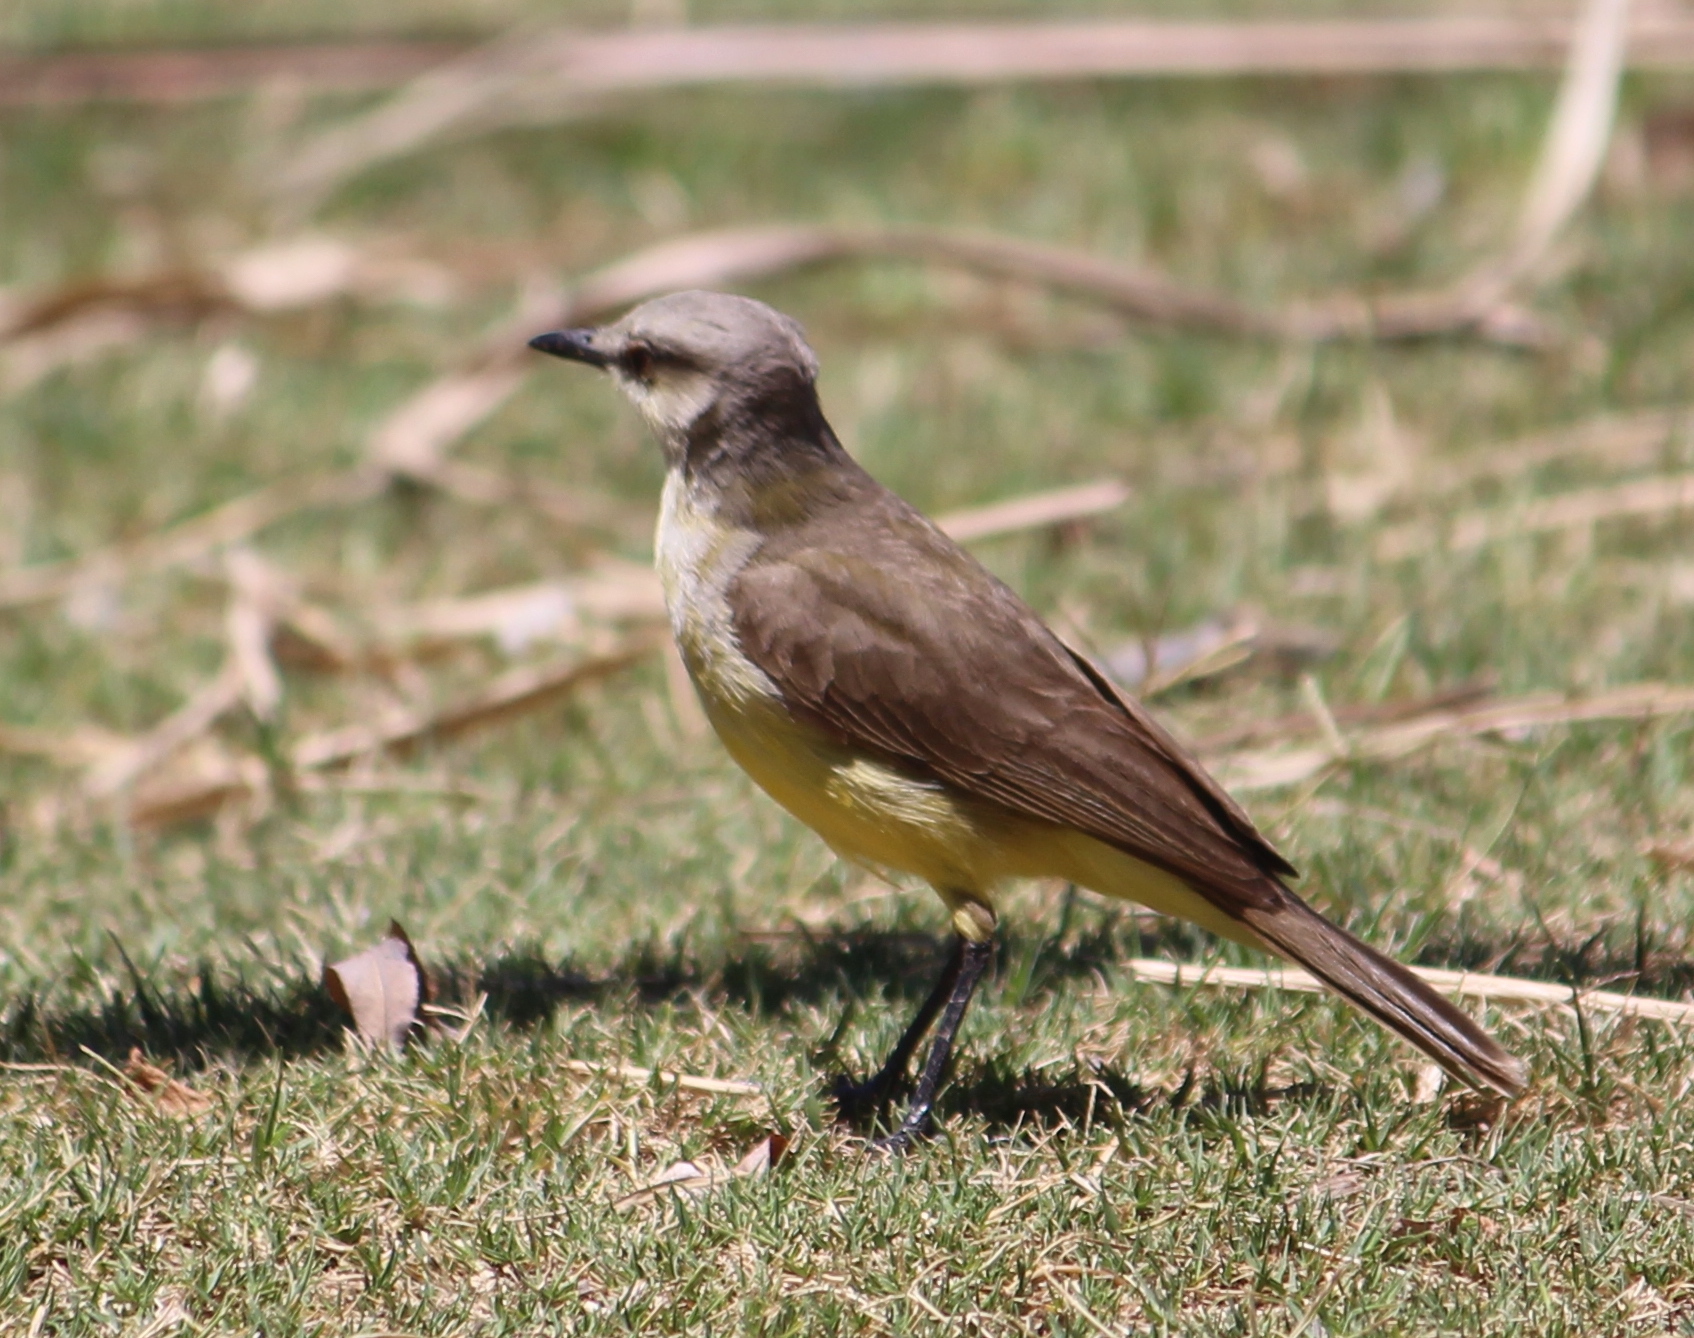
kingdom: Animalia
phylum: Chordata
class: Aves
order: Passeriformes
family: Tyrannidae
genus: Machetornis
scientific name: Machetornis rixosa
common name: Cattle tyrant
